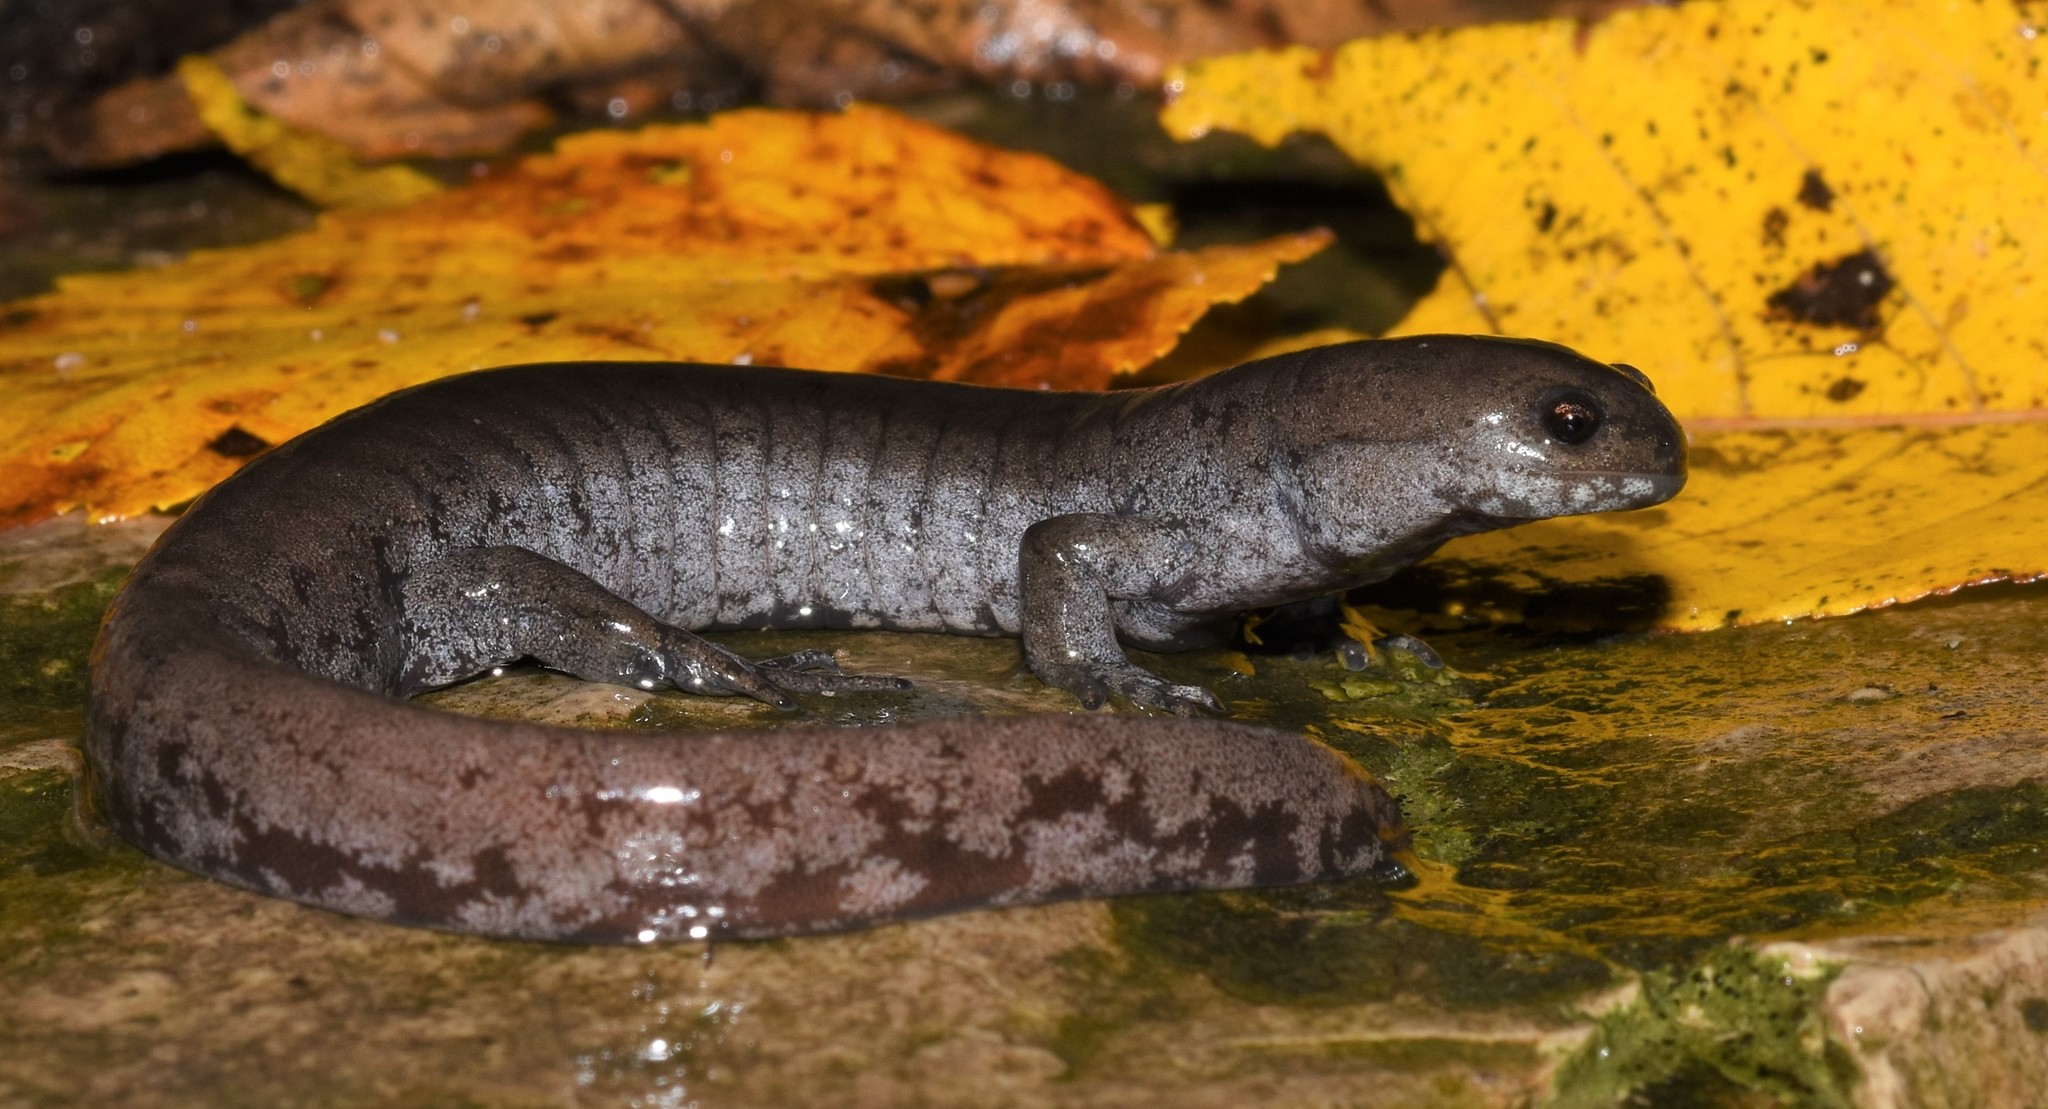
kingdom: Animalia
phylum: Chordata
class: Amphibia
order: Caudata
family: Ambystomatidae
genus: Ambystoma
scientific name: Ambystoma texanum
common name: Small-mouth salamander
